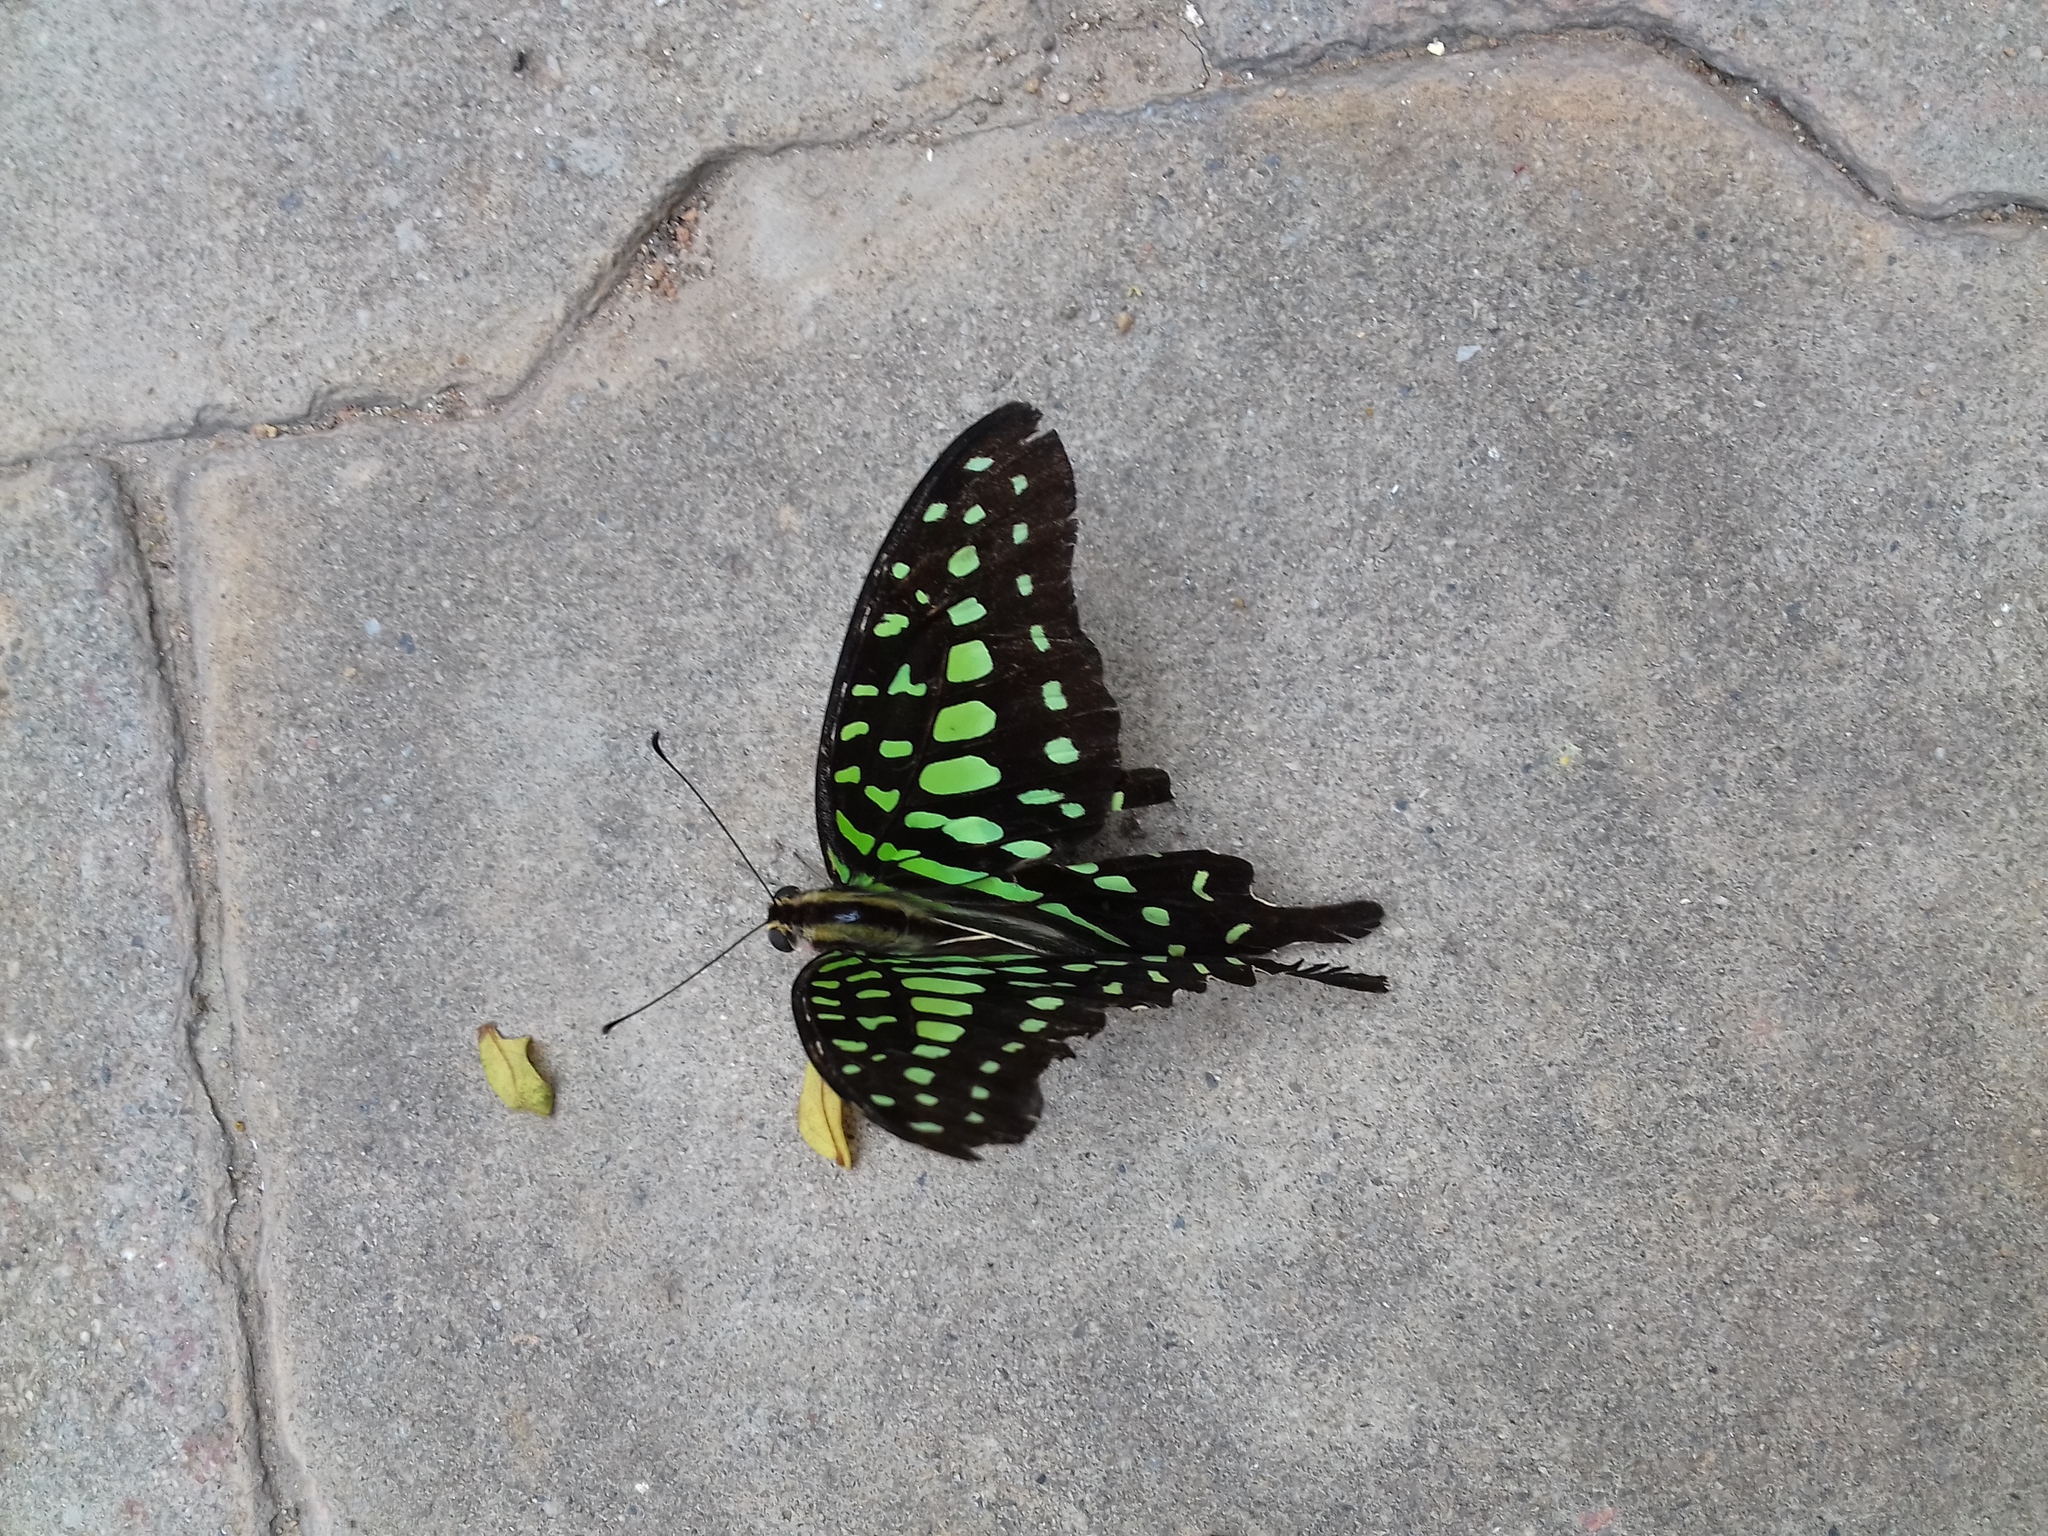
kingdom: Animalia
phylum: Arthropoda
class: Insecta
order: Lepidoptera
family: Papilionidae
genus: Graphium
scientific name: Graphium agamemnon
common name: Tailed jay
